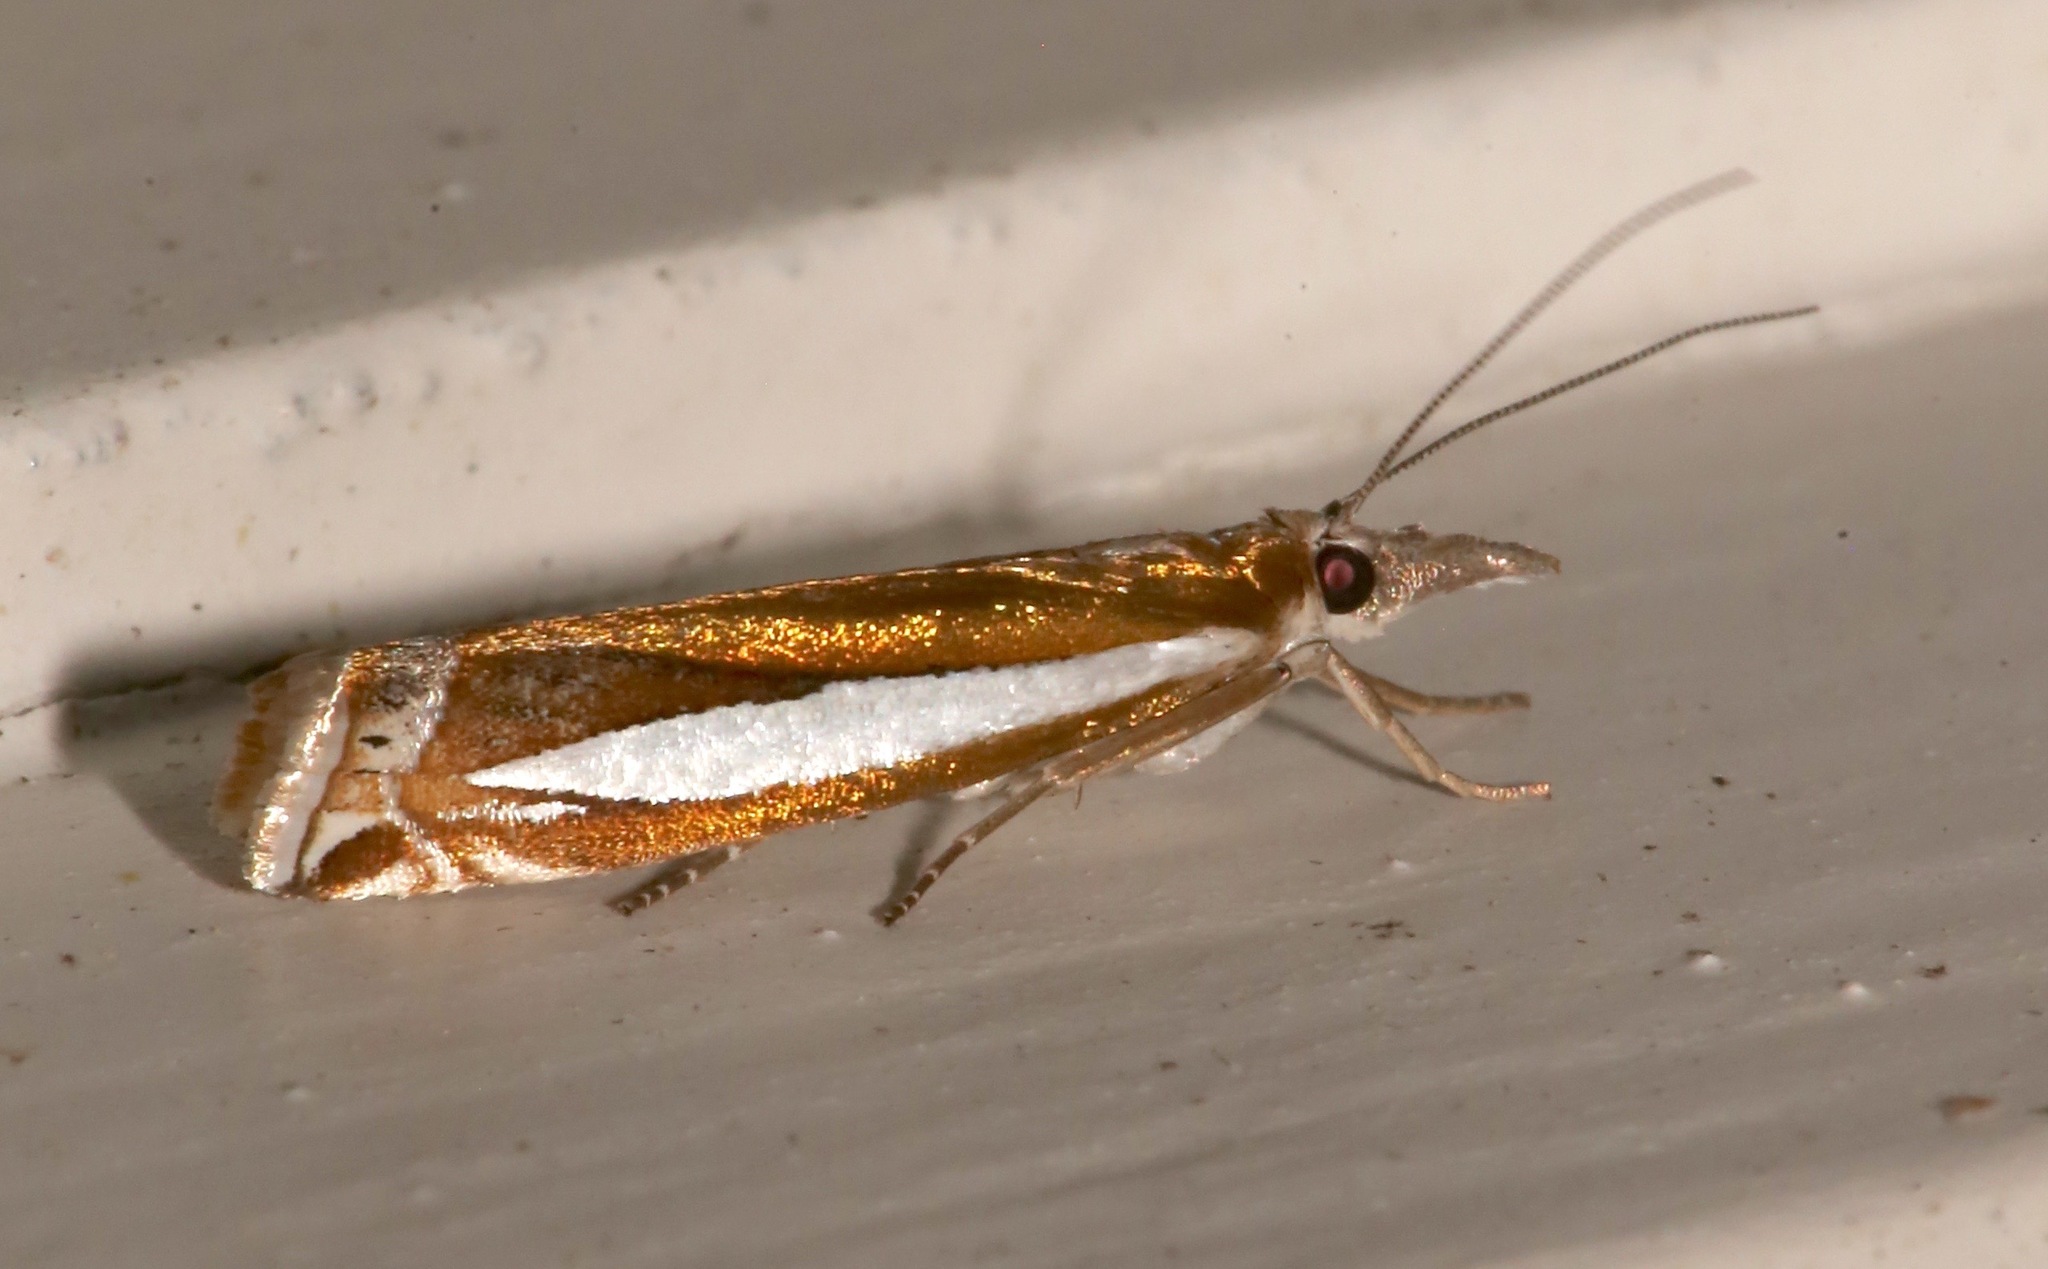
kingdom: Animalia
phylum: Arthropoda
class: Insecta
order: Lepidoptera
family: Crambidae
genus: Crambus
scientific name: Crambus praefectellus
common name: Common grass-veneer
